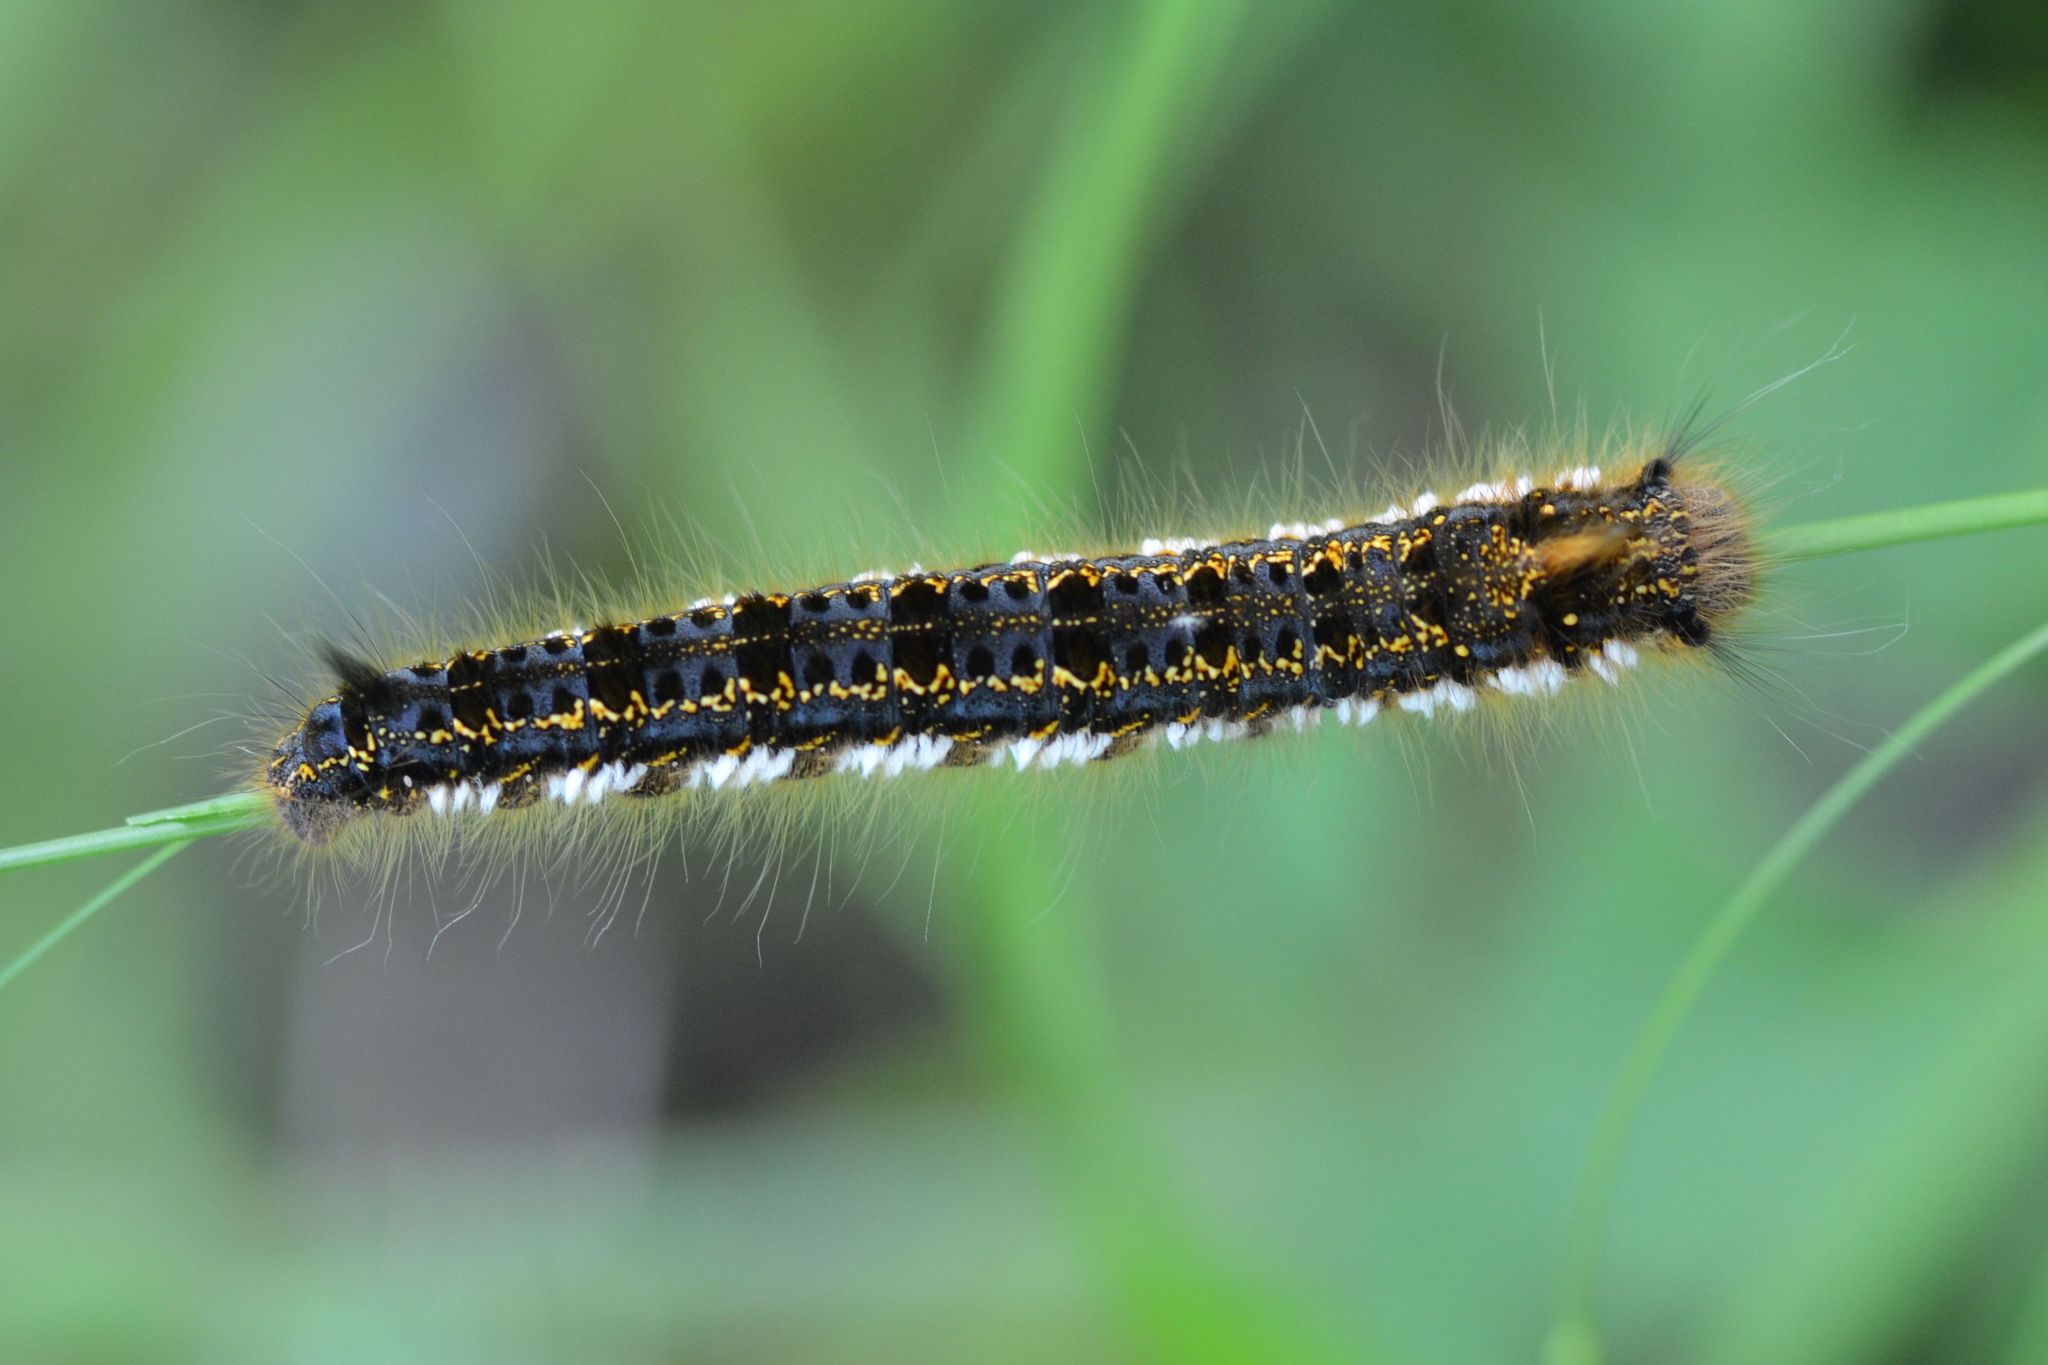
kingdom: Animalia
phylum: Arthropoda
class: Insecta
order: Lepidoptera
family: Lasiocampidae
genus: Euthrix
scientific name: Euthrix potatoria
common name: Drinker
